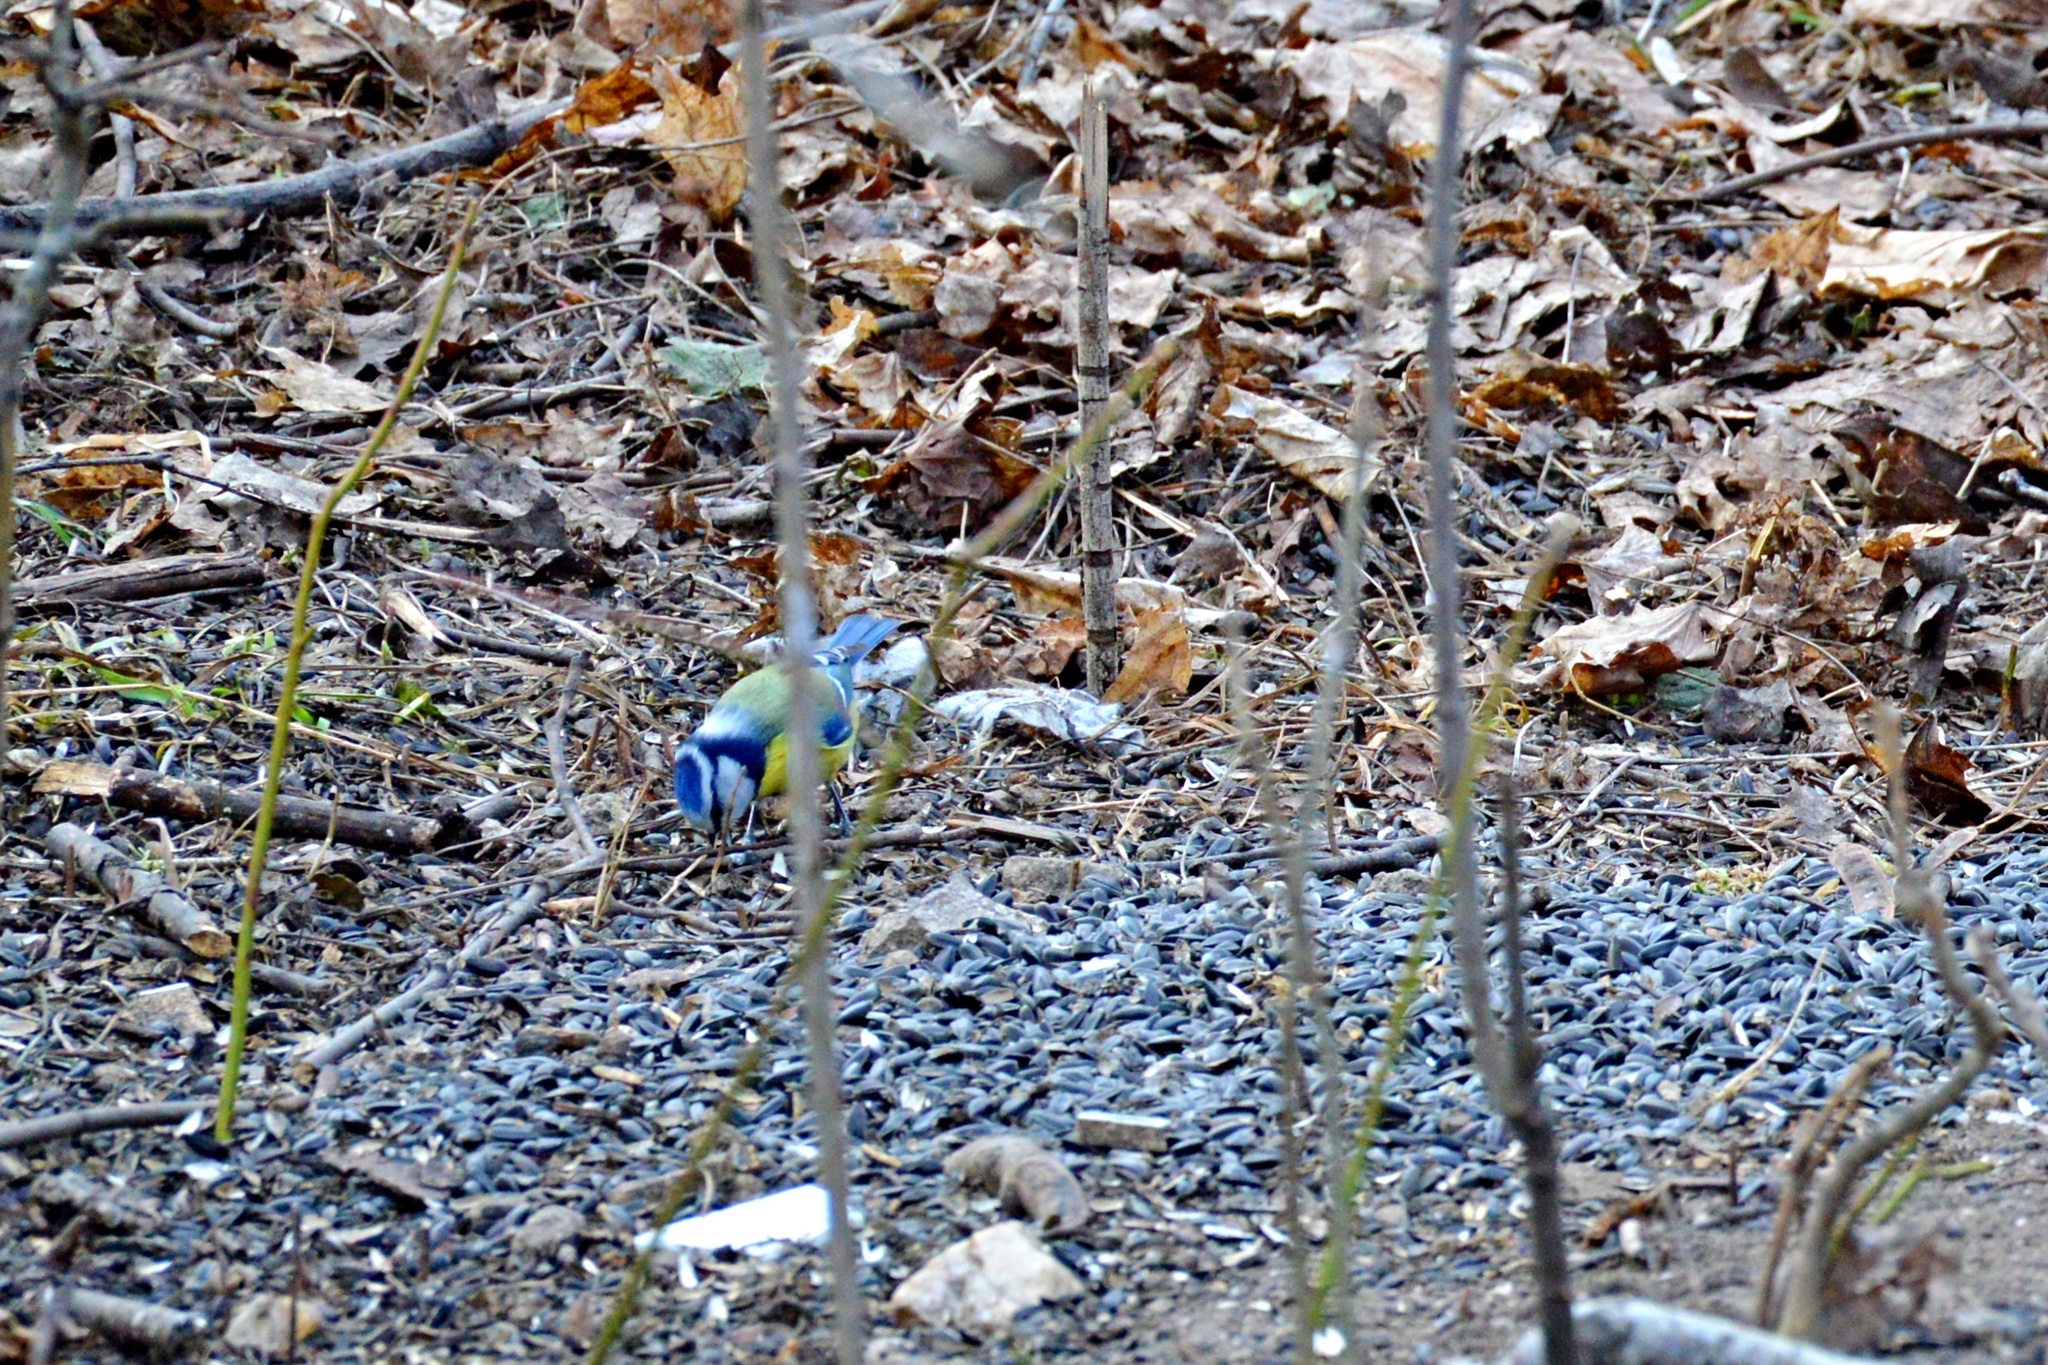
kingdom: Animalia
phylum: Chordata
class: Aves
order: Passeriformes
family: Paridae
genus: Cyanistes
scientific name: Cyanistes caeruleus
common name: Eurasian blue tit
